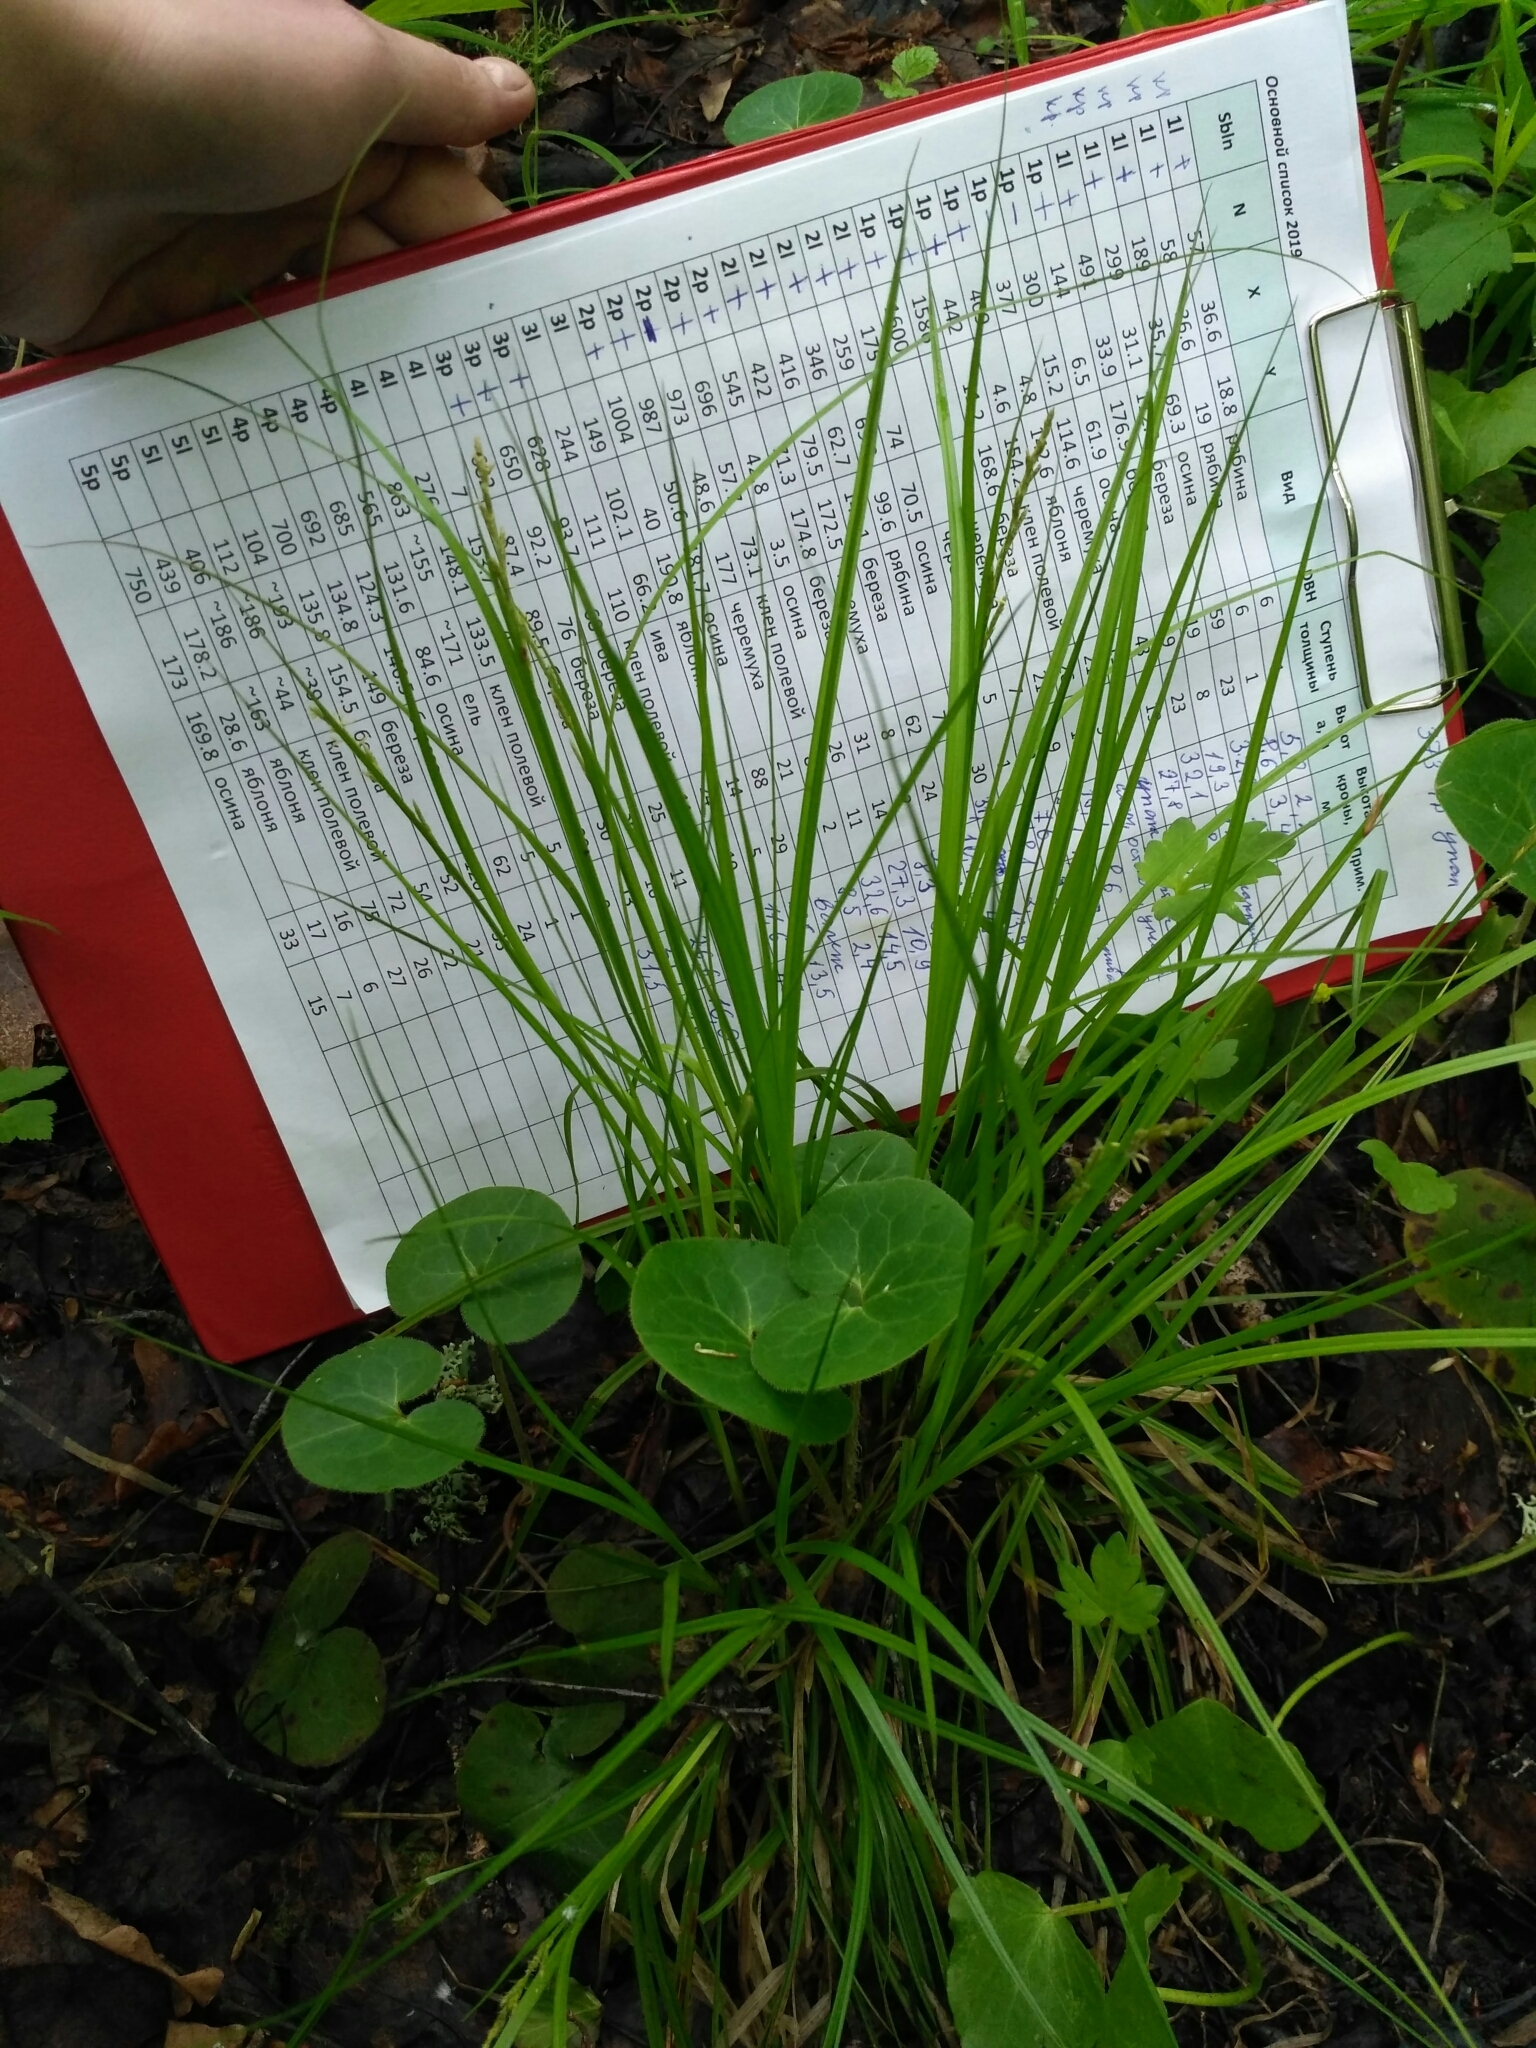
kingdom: Plantae
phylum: Tracheophyta
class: Liliopsida
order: Poales
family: Cyperaceae
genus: Carex
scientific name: Carex elongata
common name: Elongated sedge
